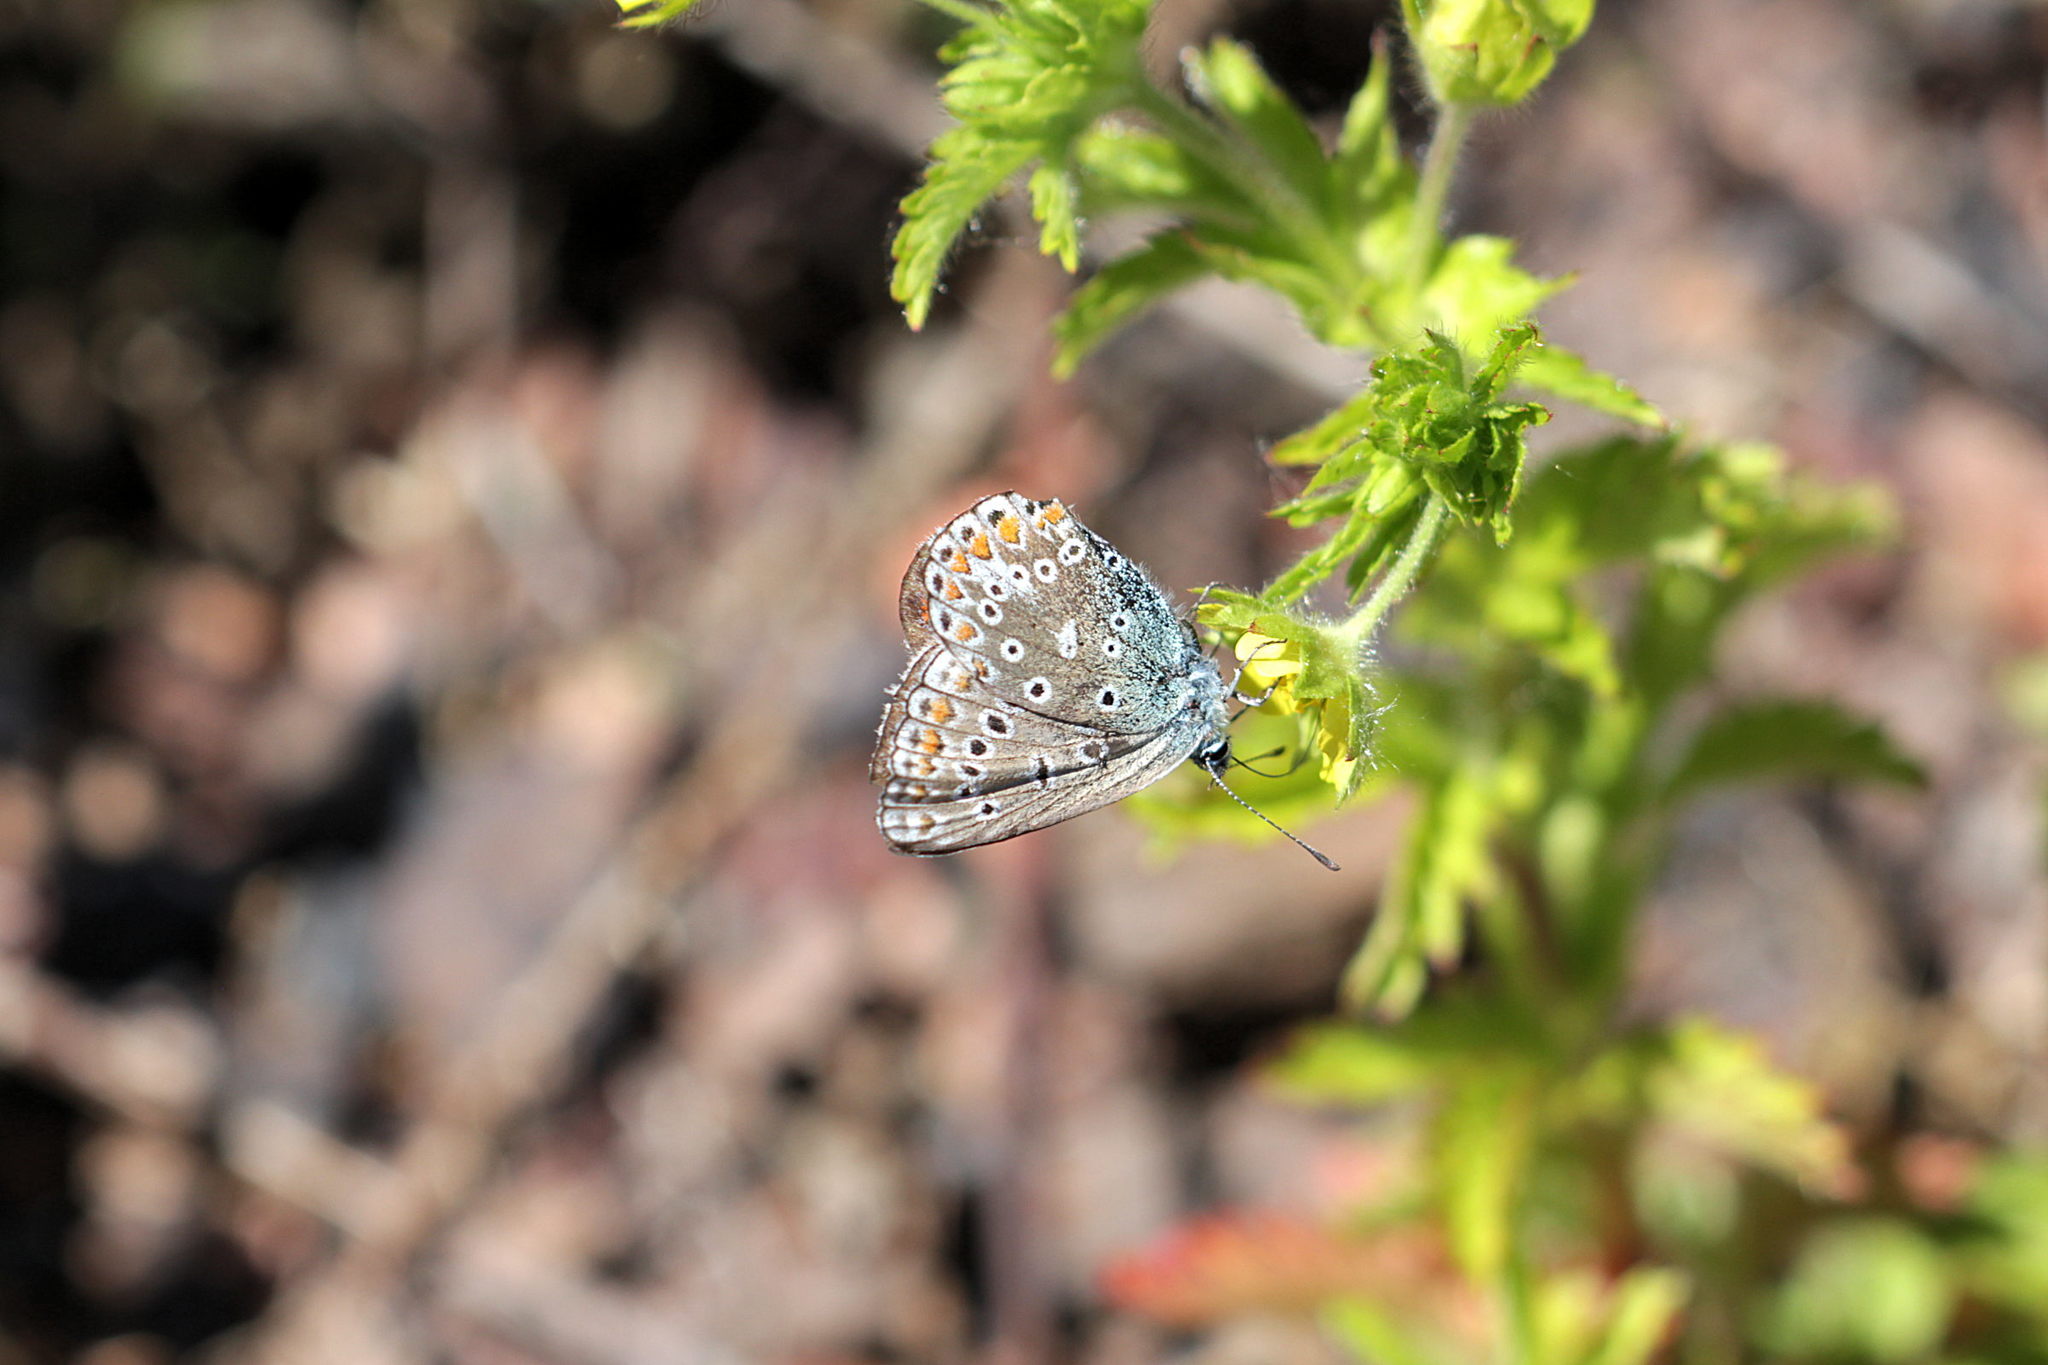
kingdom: Animalia
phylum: Arthropoda
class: Insecta
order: Lepidoptera
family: Lycaenidae
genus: Polyommatus
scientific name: Polyommatus icarus
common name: Common blue
